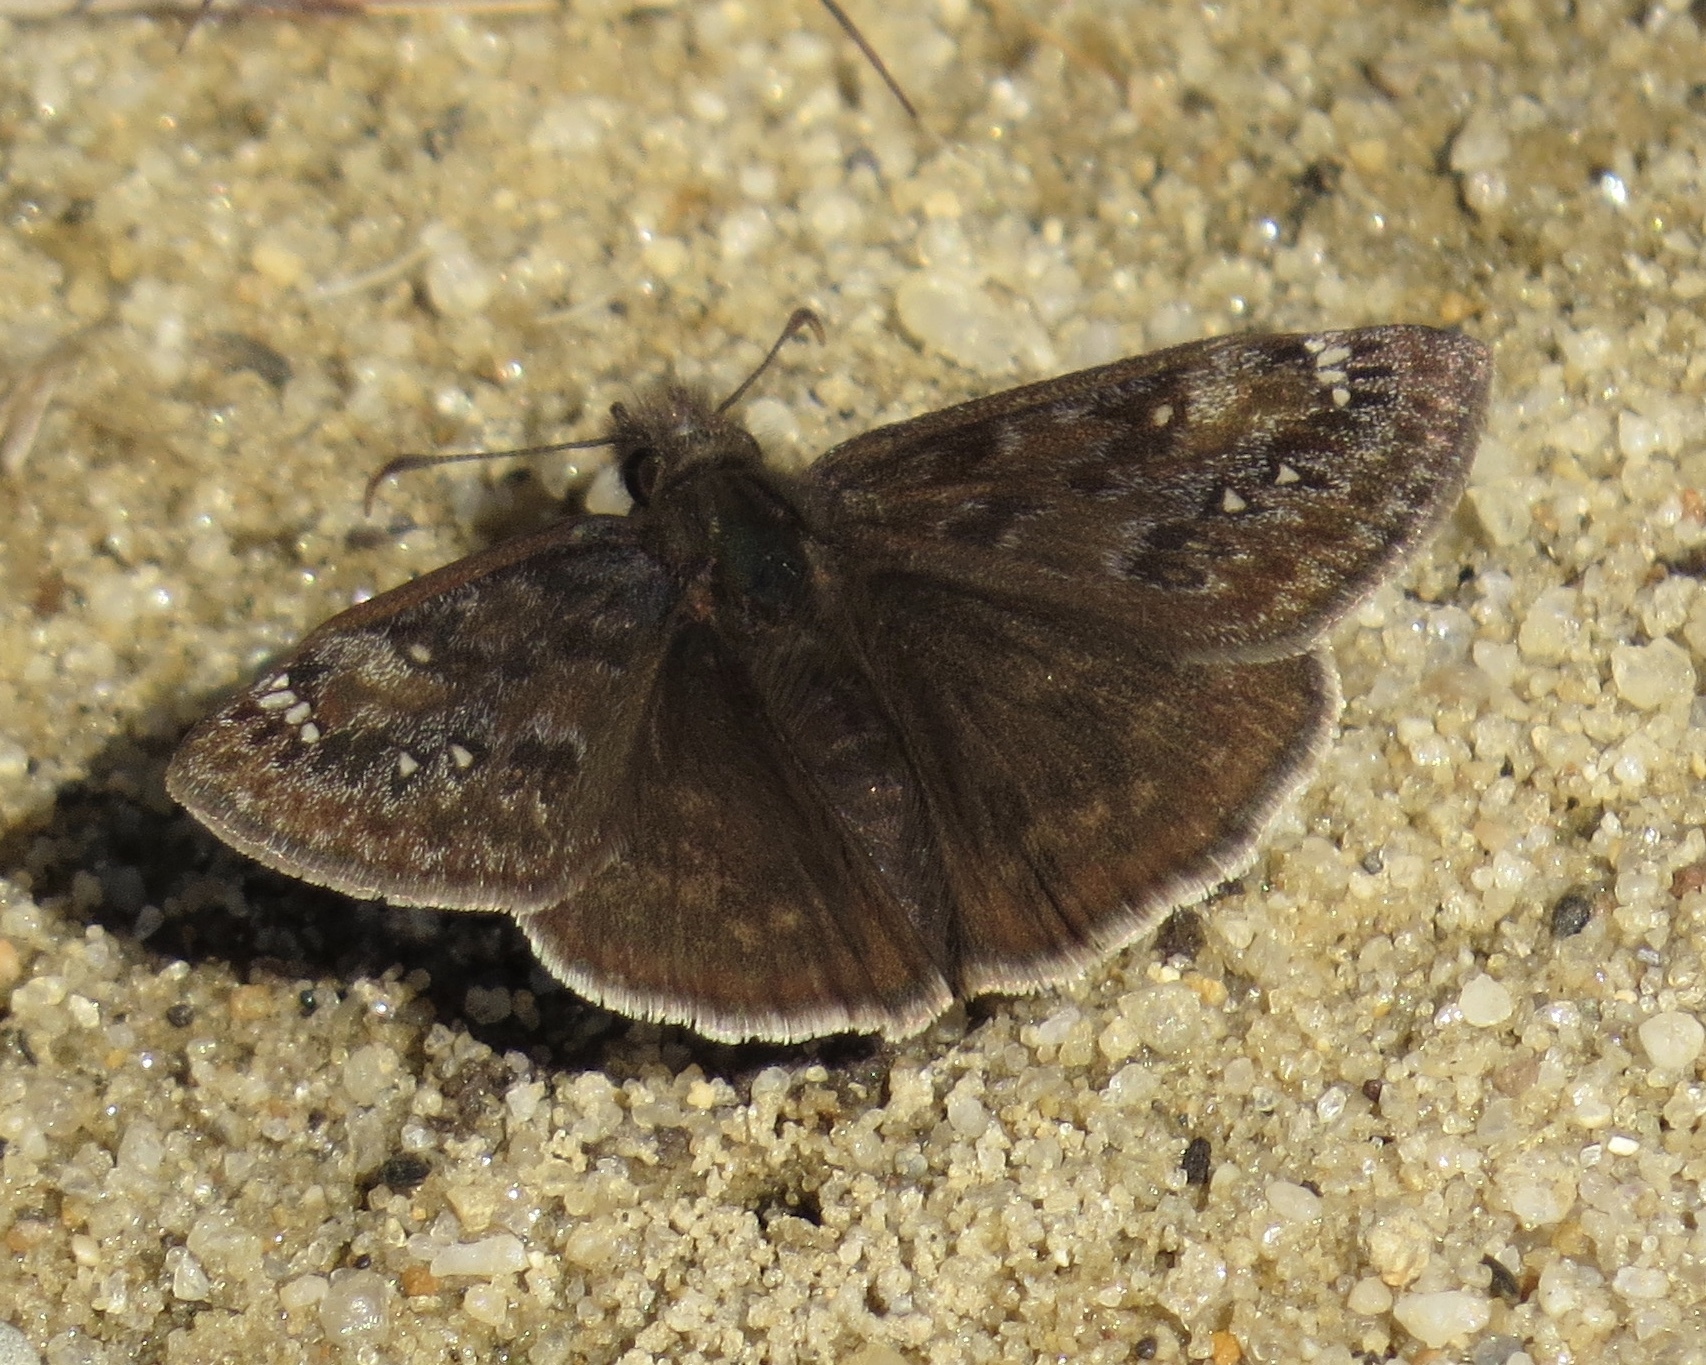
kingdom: Animalia
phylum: Arthropoda
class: Insecta
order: Lepidoptera
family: Hesperiidae
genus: Erynnis
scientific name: Erynnis juvenalis
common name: Juvenal's duskywing
